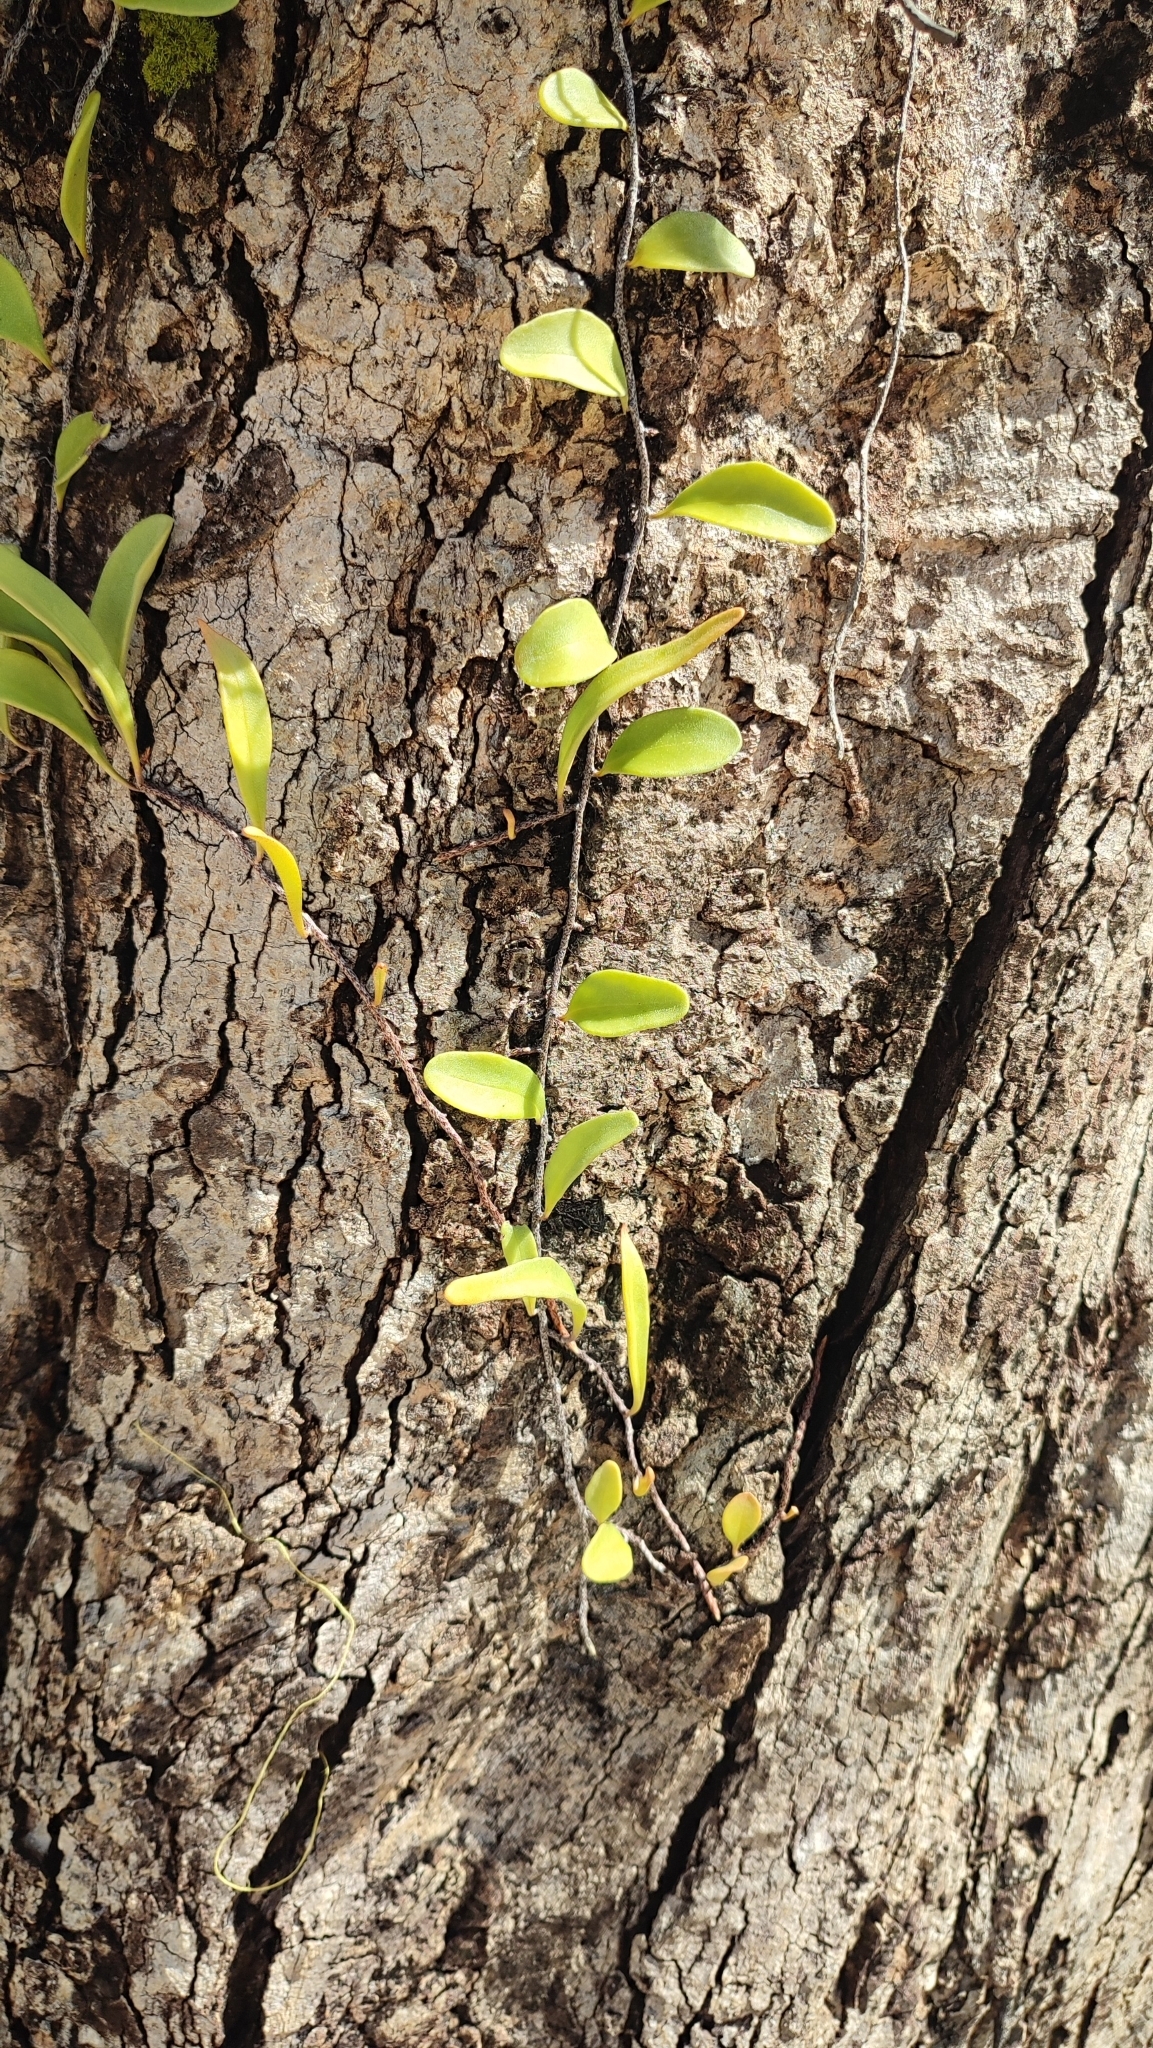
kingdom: Plantae
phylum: Tracheophyta
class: Polypodiopsida
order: Polypodiales
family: Polypodiaceae
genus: Pyrrosia
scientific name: Pyrrosia lanceolata
